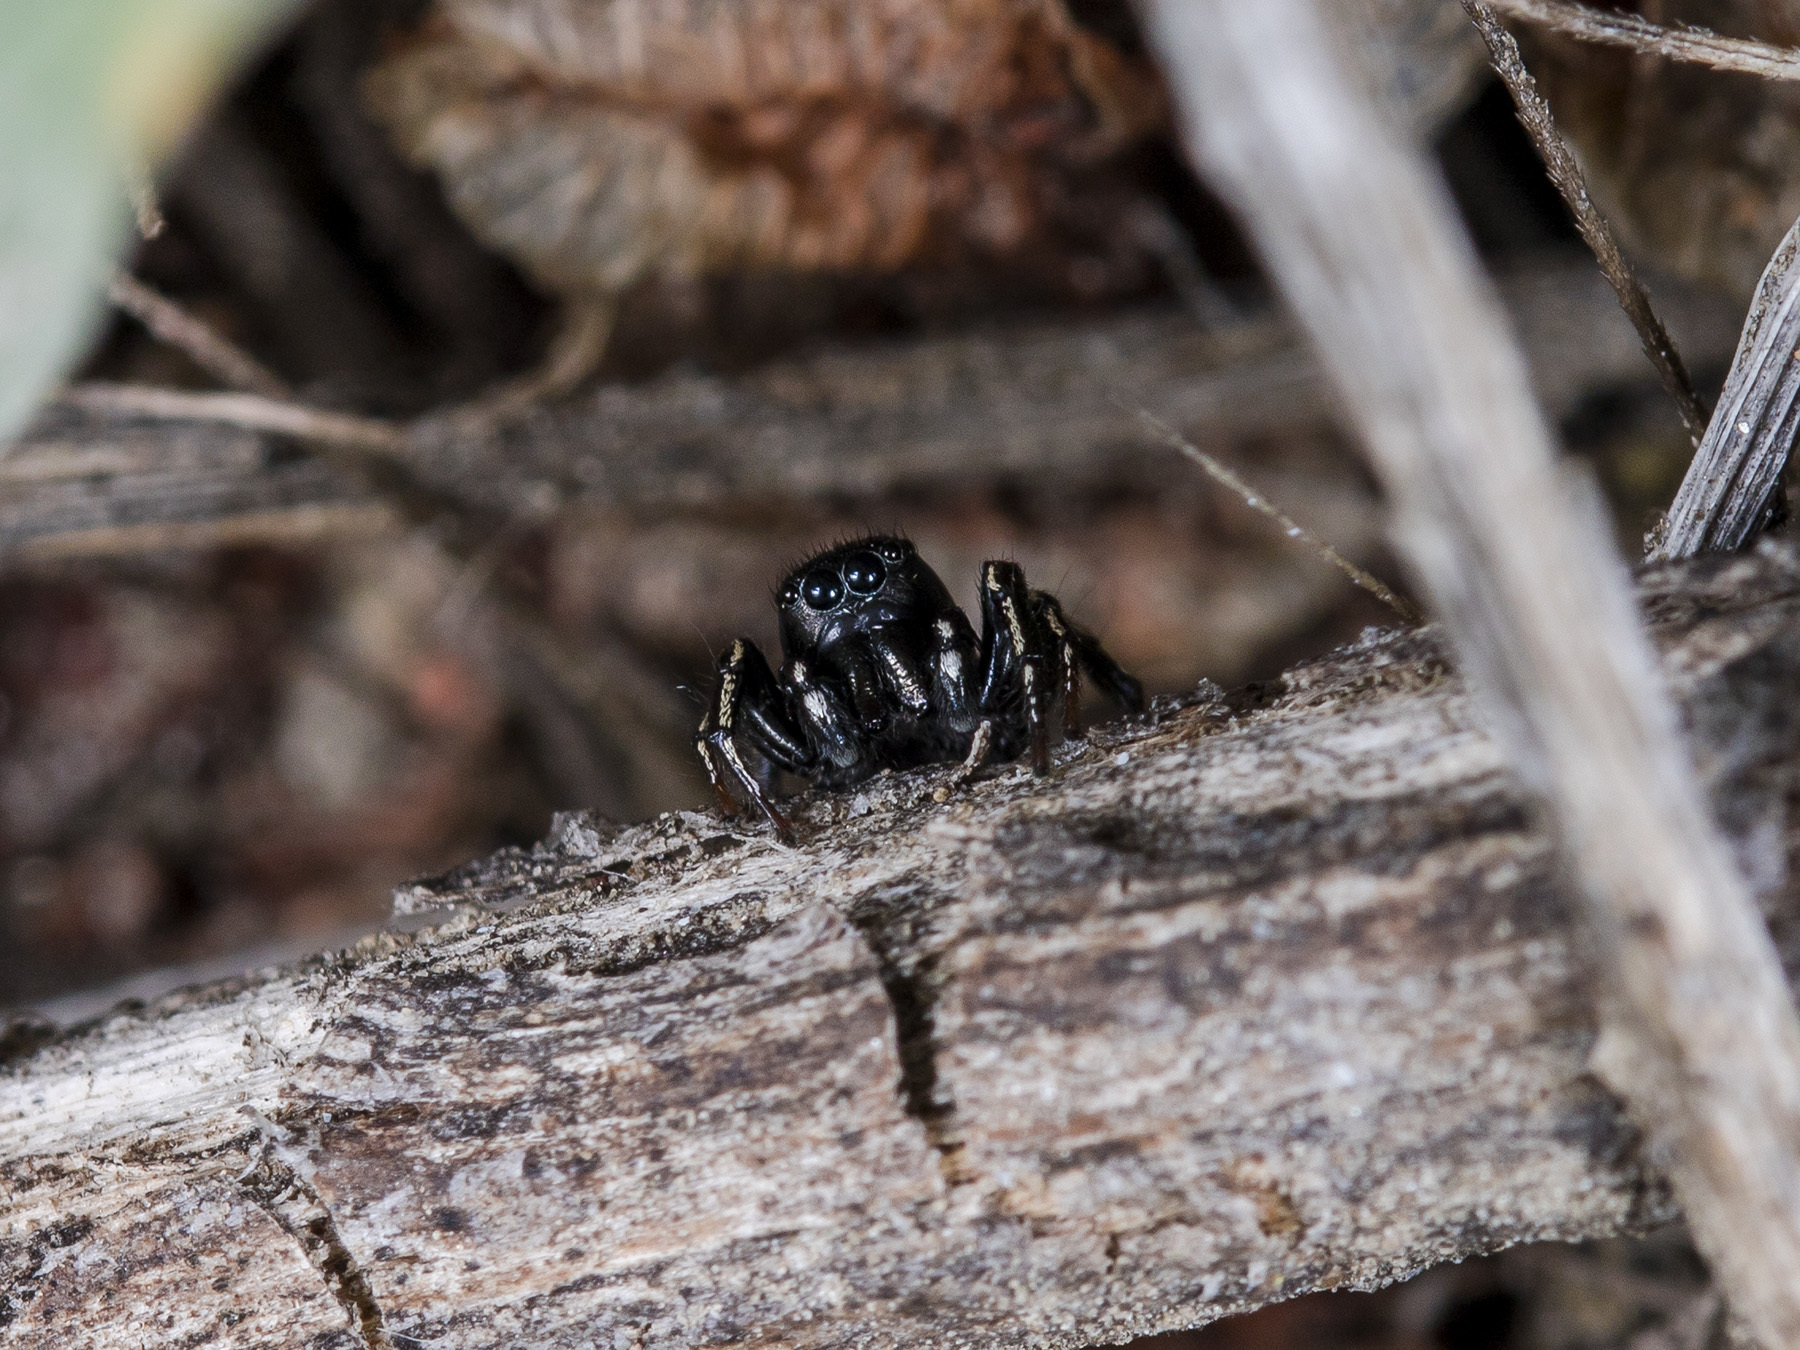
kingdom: Animalia
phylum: Arthropoda
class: Arachnida
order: Araneae
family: Salticidae
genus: Heliophanus
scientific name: Heliophanus chovdensis
